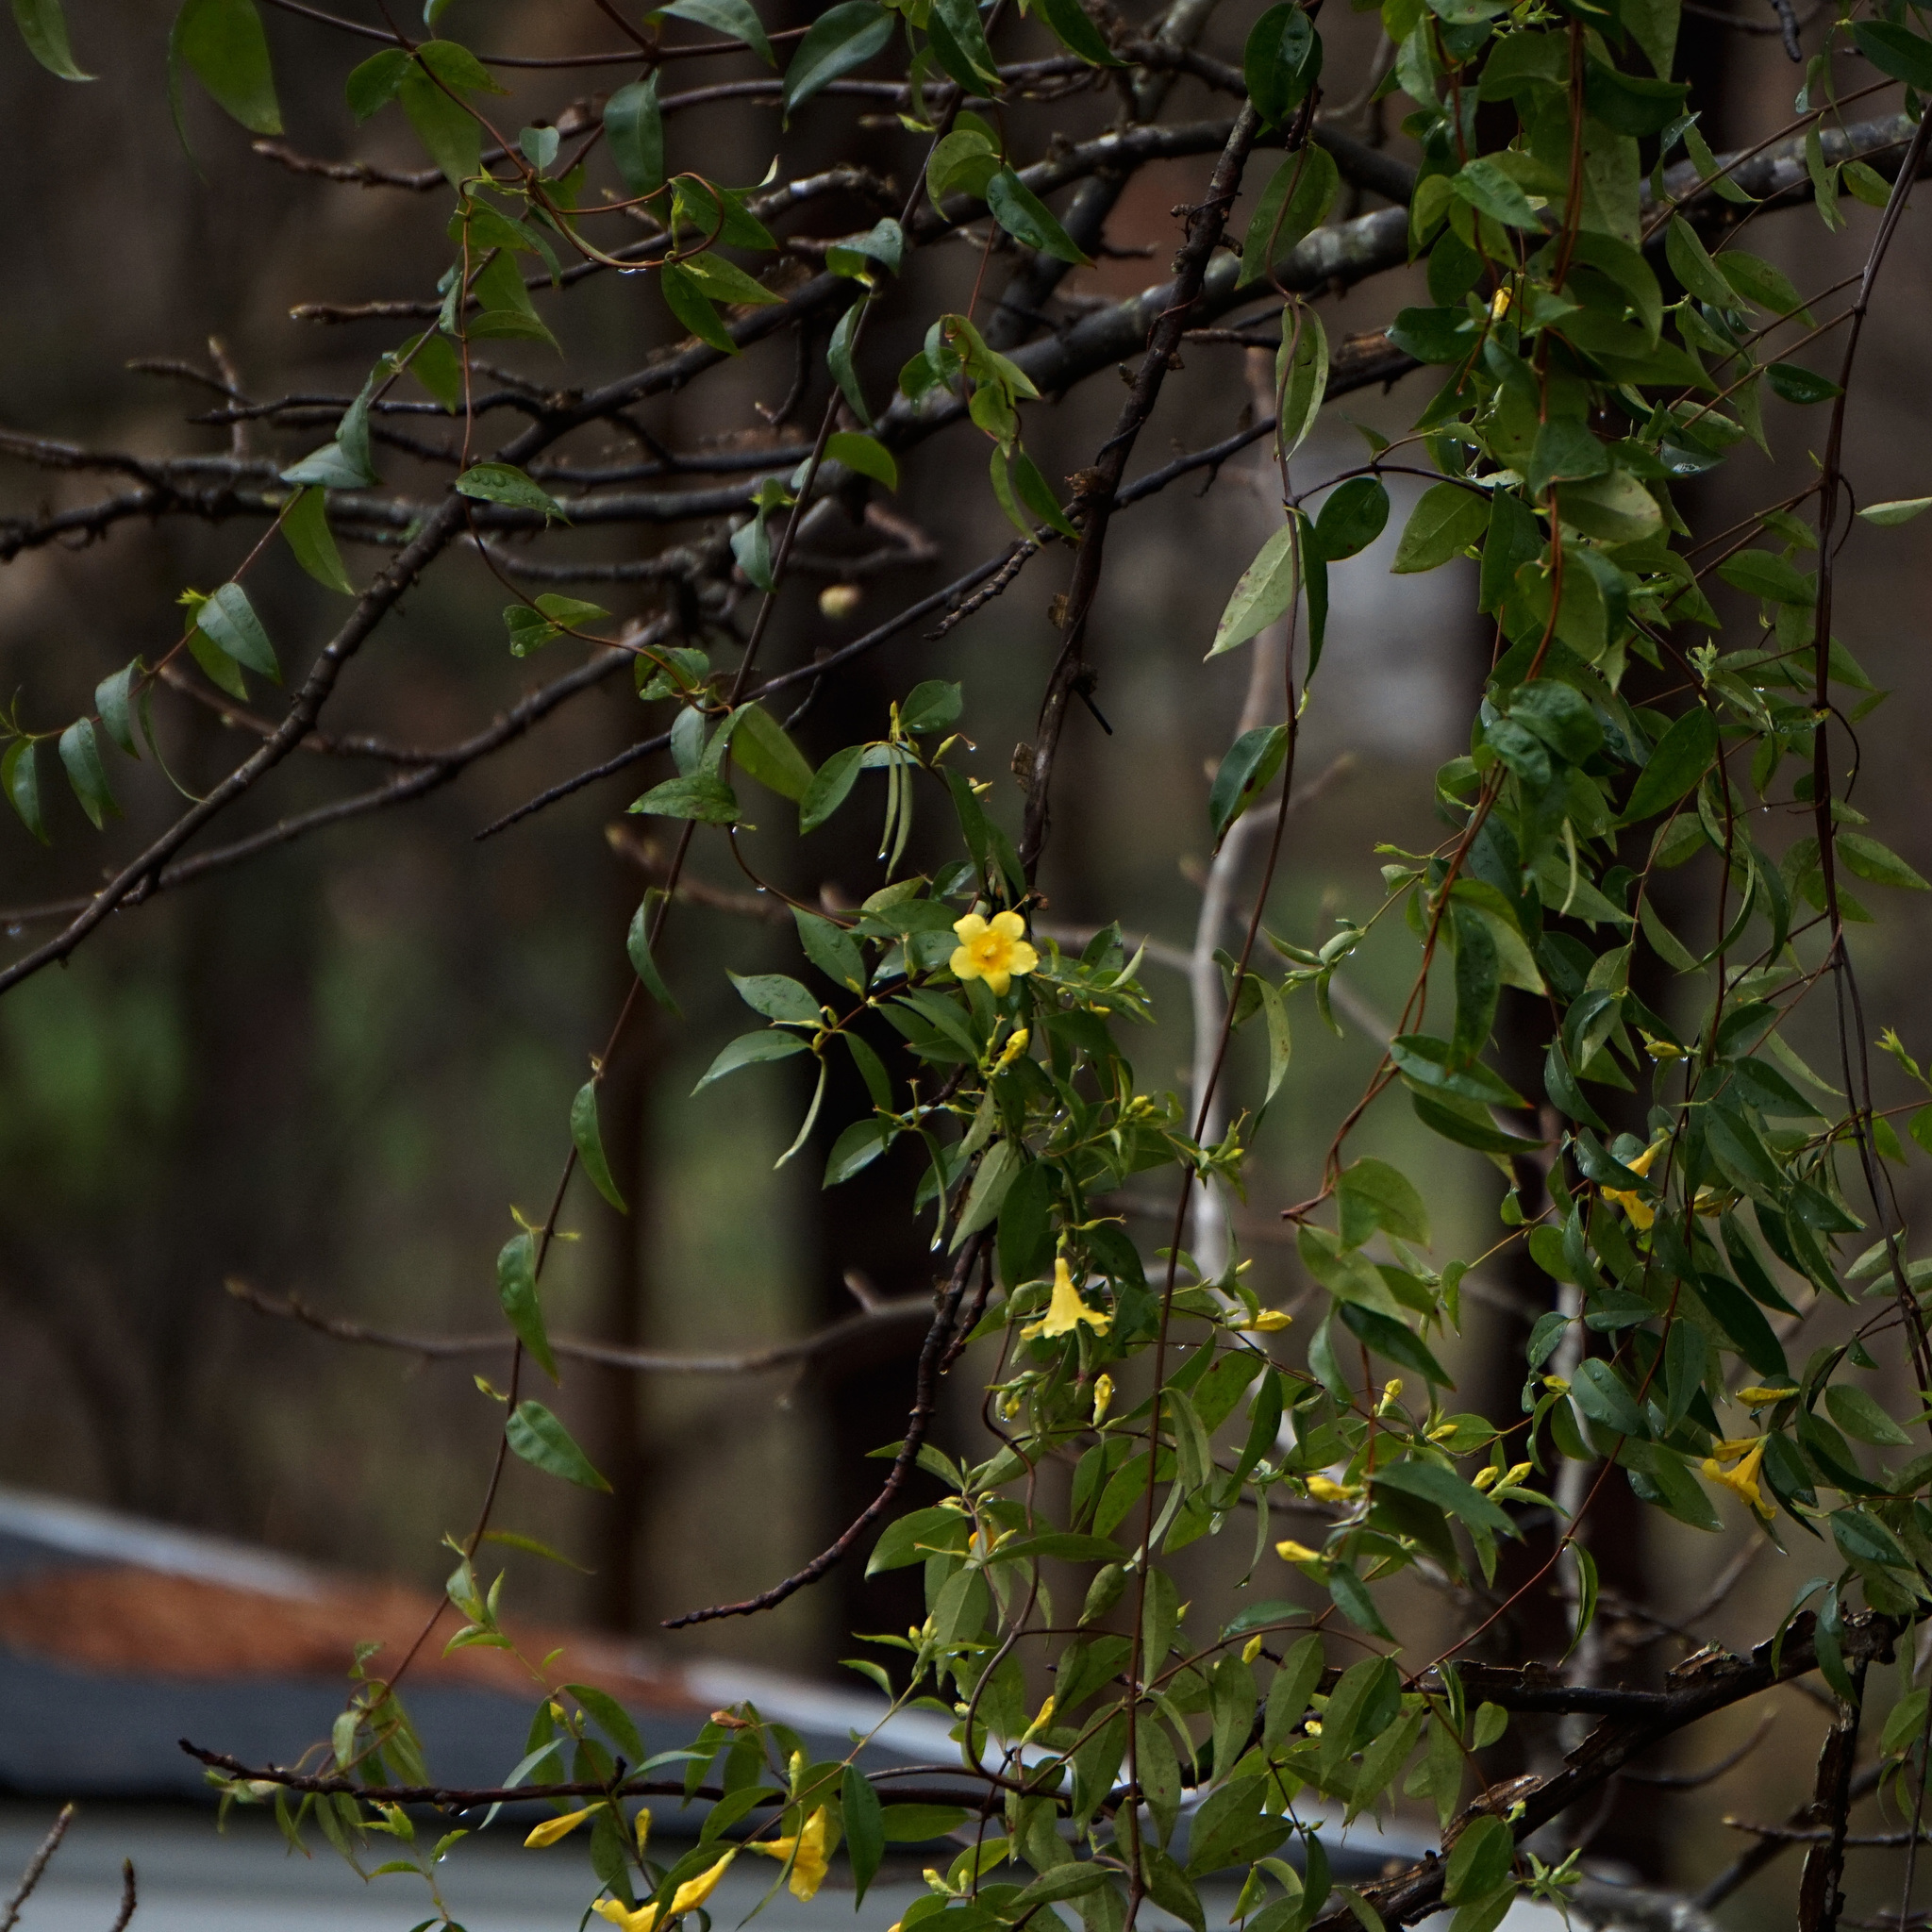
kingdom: Plantae
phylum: Tracheophyta
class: Magnoliopsida
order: Gentianales
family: Gelsemiaceae
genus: Gelsemium
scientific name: Gelsemium sempervirens
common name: Carolina-jasmine
